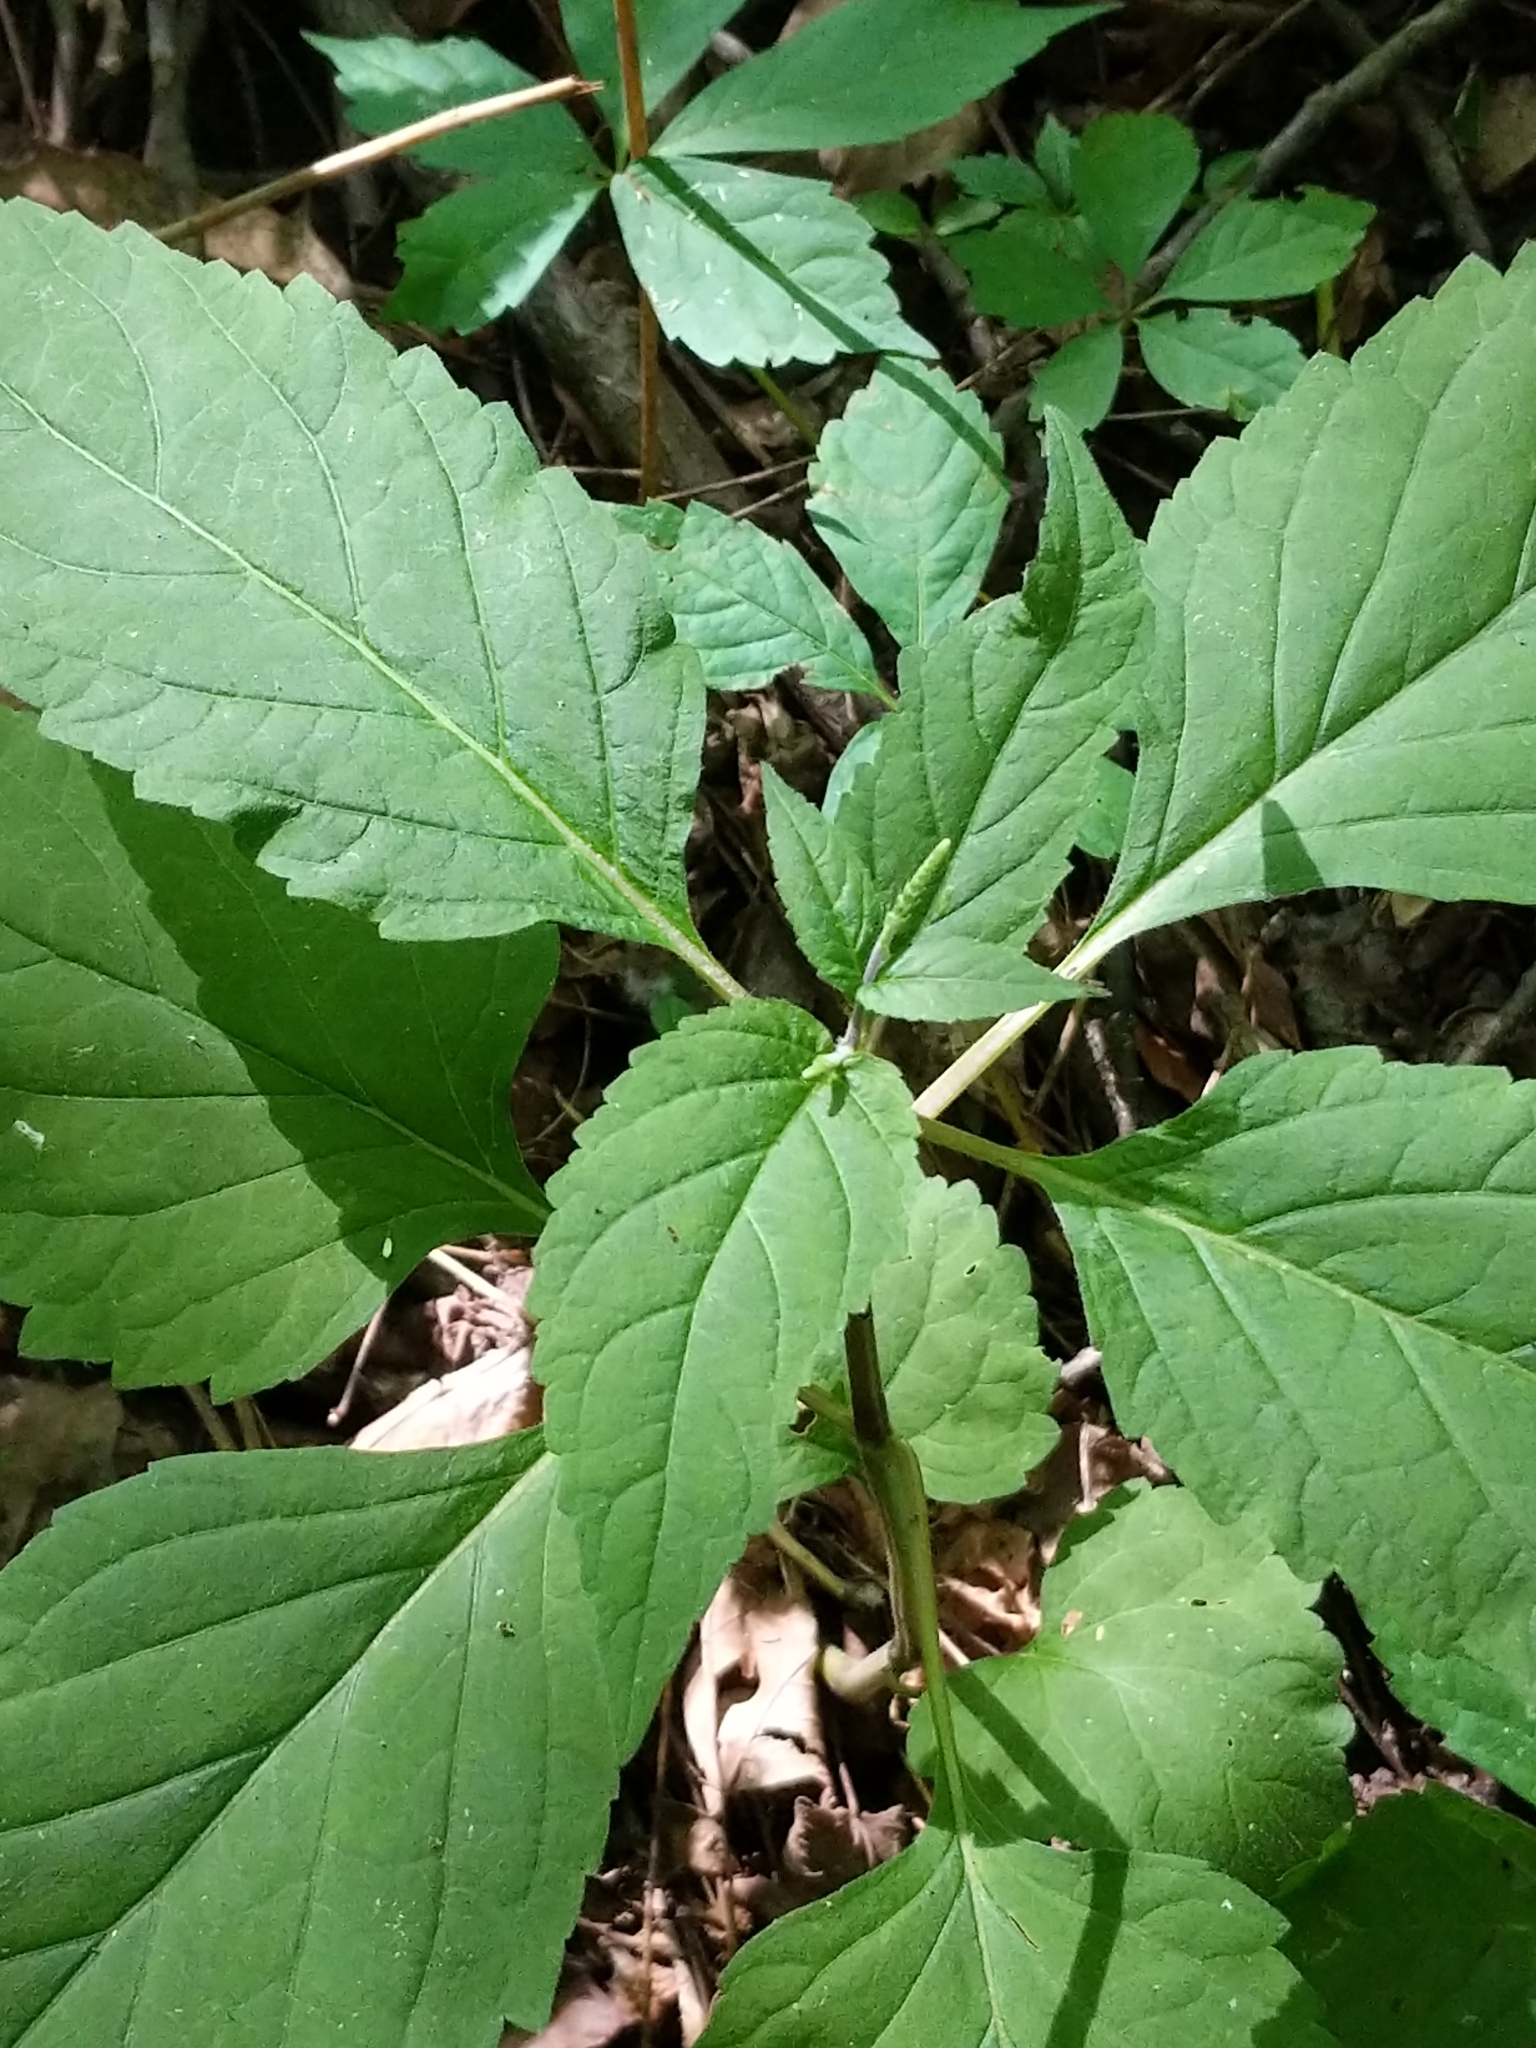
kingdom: Plantae
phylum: Tracheophyta
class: Magnoliopsida
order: Lamiales
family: Phrymaceae
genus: Phryma
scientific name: Phryma leptostachya
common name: American lopseed
